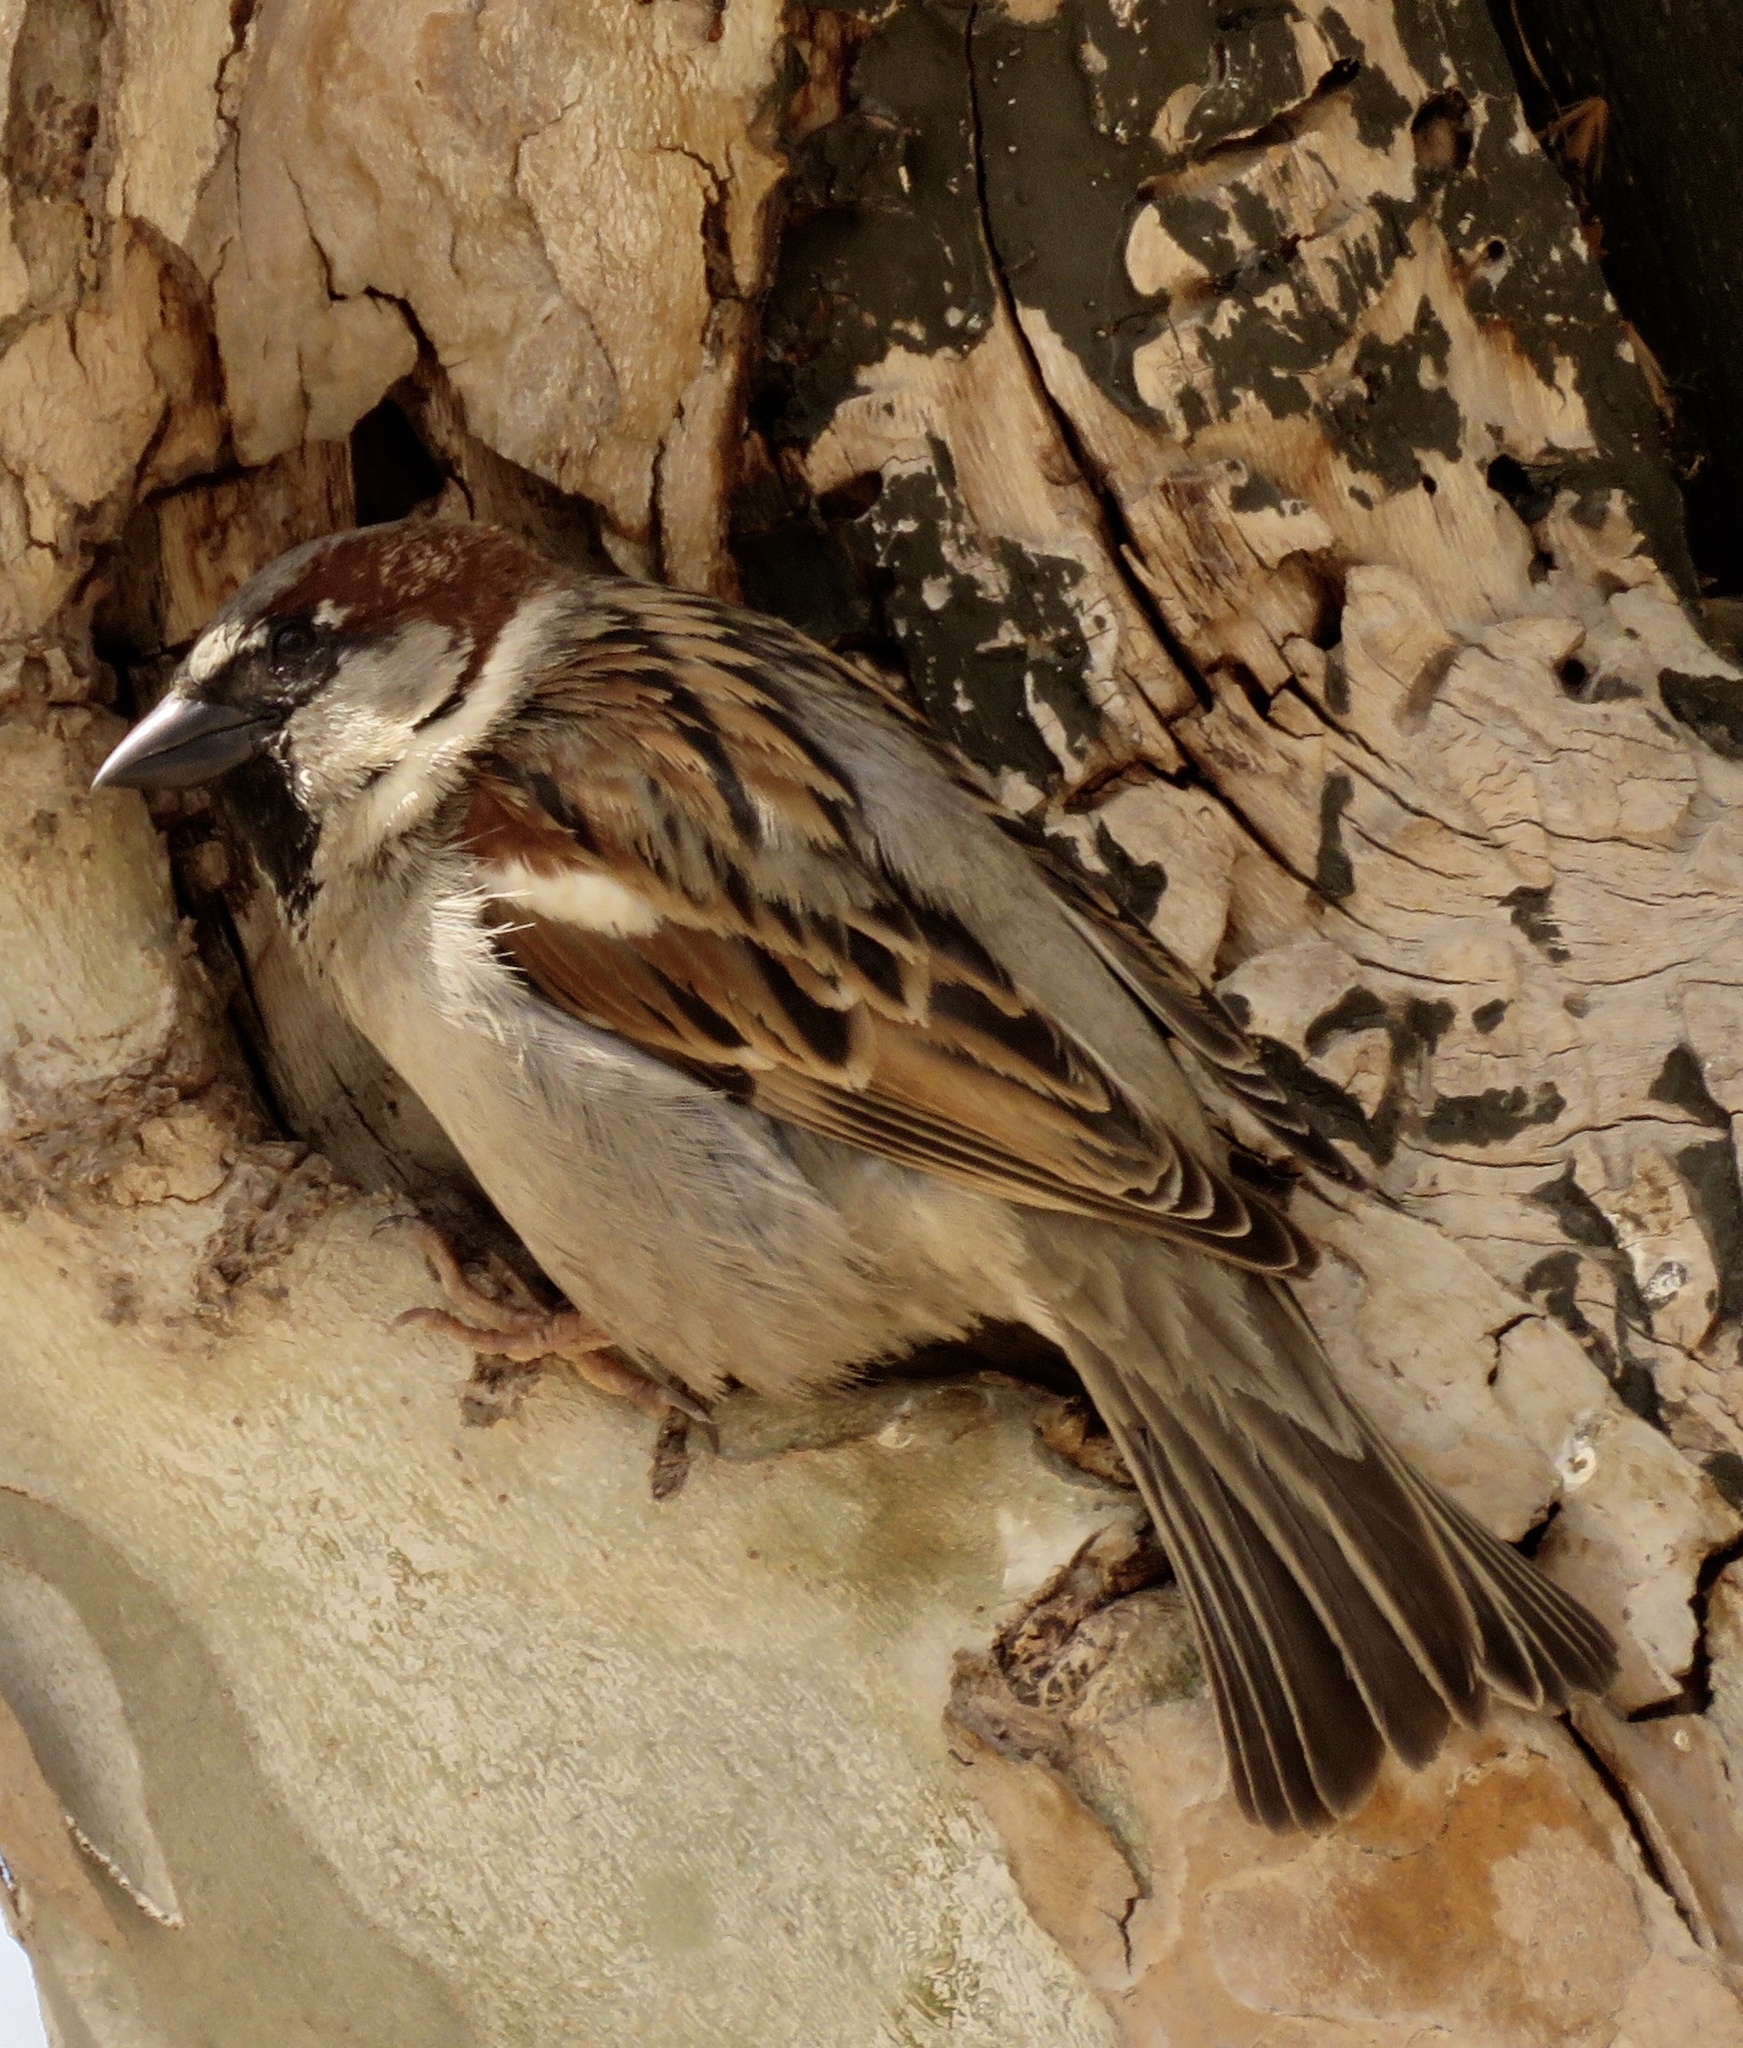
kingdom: Animalia
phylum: Chordata
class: Aves
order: Passeriformes
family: Passeridae
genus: Passer
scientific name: Passer domesticus
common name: House sparrow
